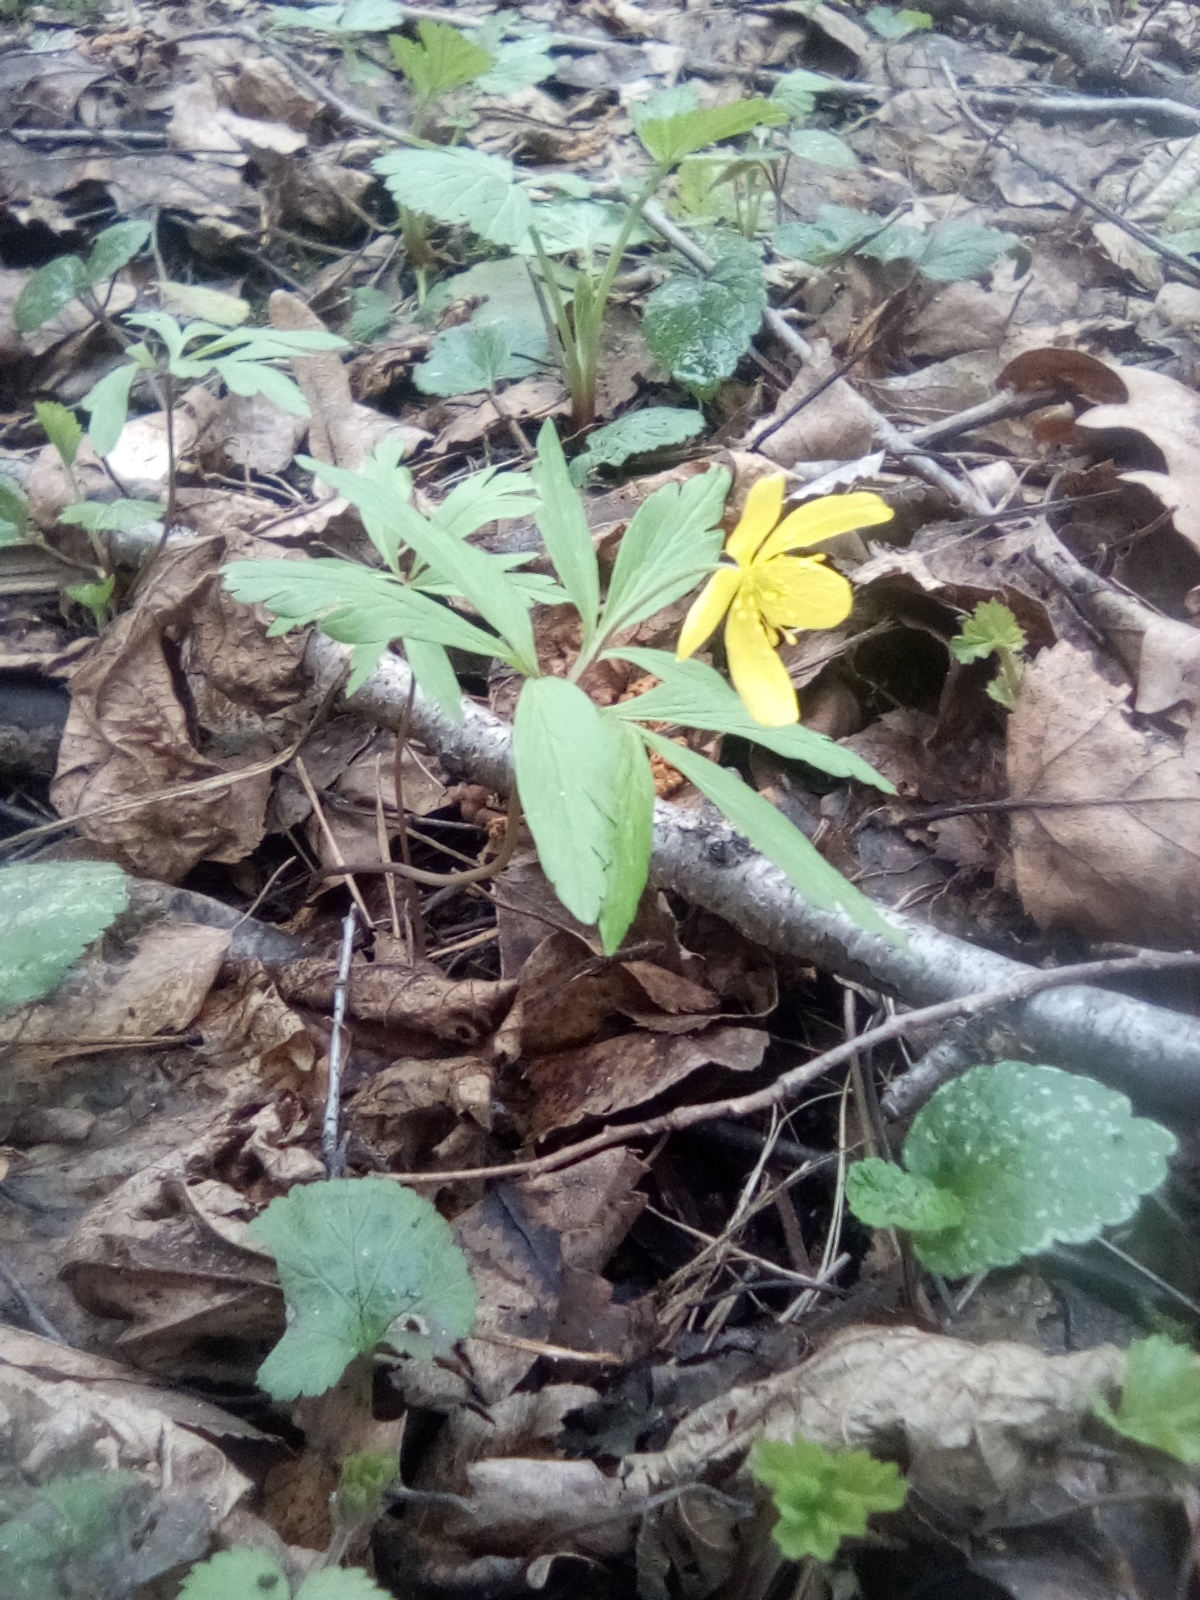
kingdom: Plantae
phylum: Tracheophyta
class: Magnoliopsida
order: Ranunculales
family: Ranunculaceae
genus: Anemone
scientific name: Anemone ranunculoides
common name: Yellow anemone
